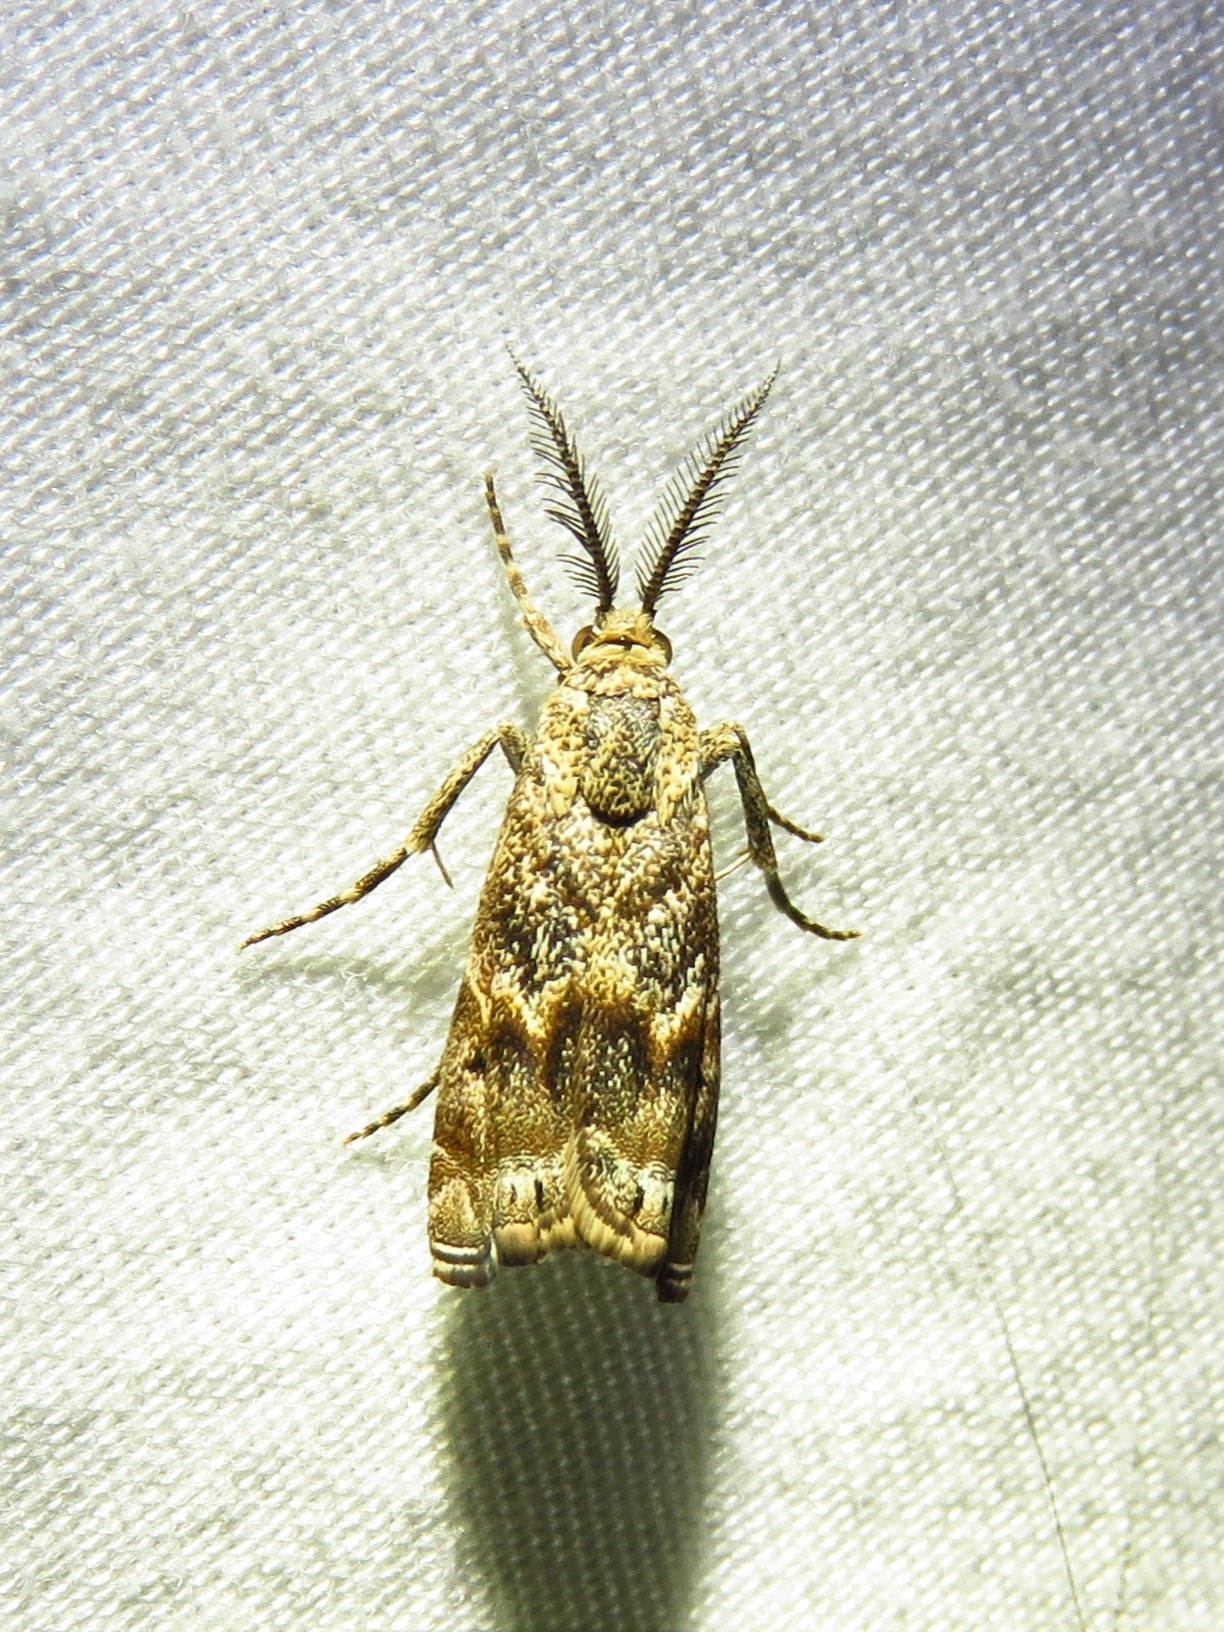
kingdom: Animalia
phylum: Arthropoda
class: Insecta
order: Lepidoptera
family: Crambidae
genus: Prionapteryx
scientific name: Prionapteryx
